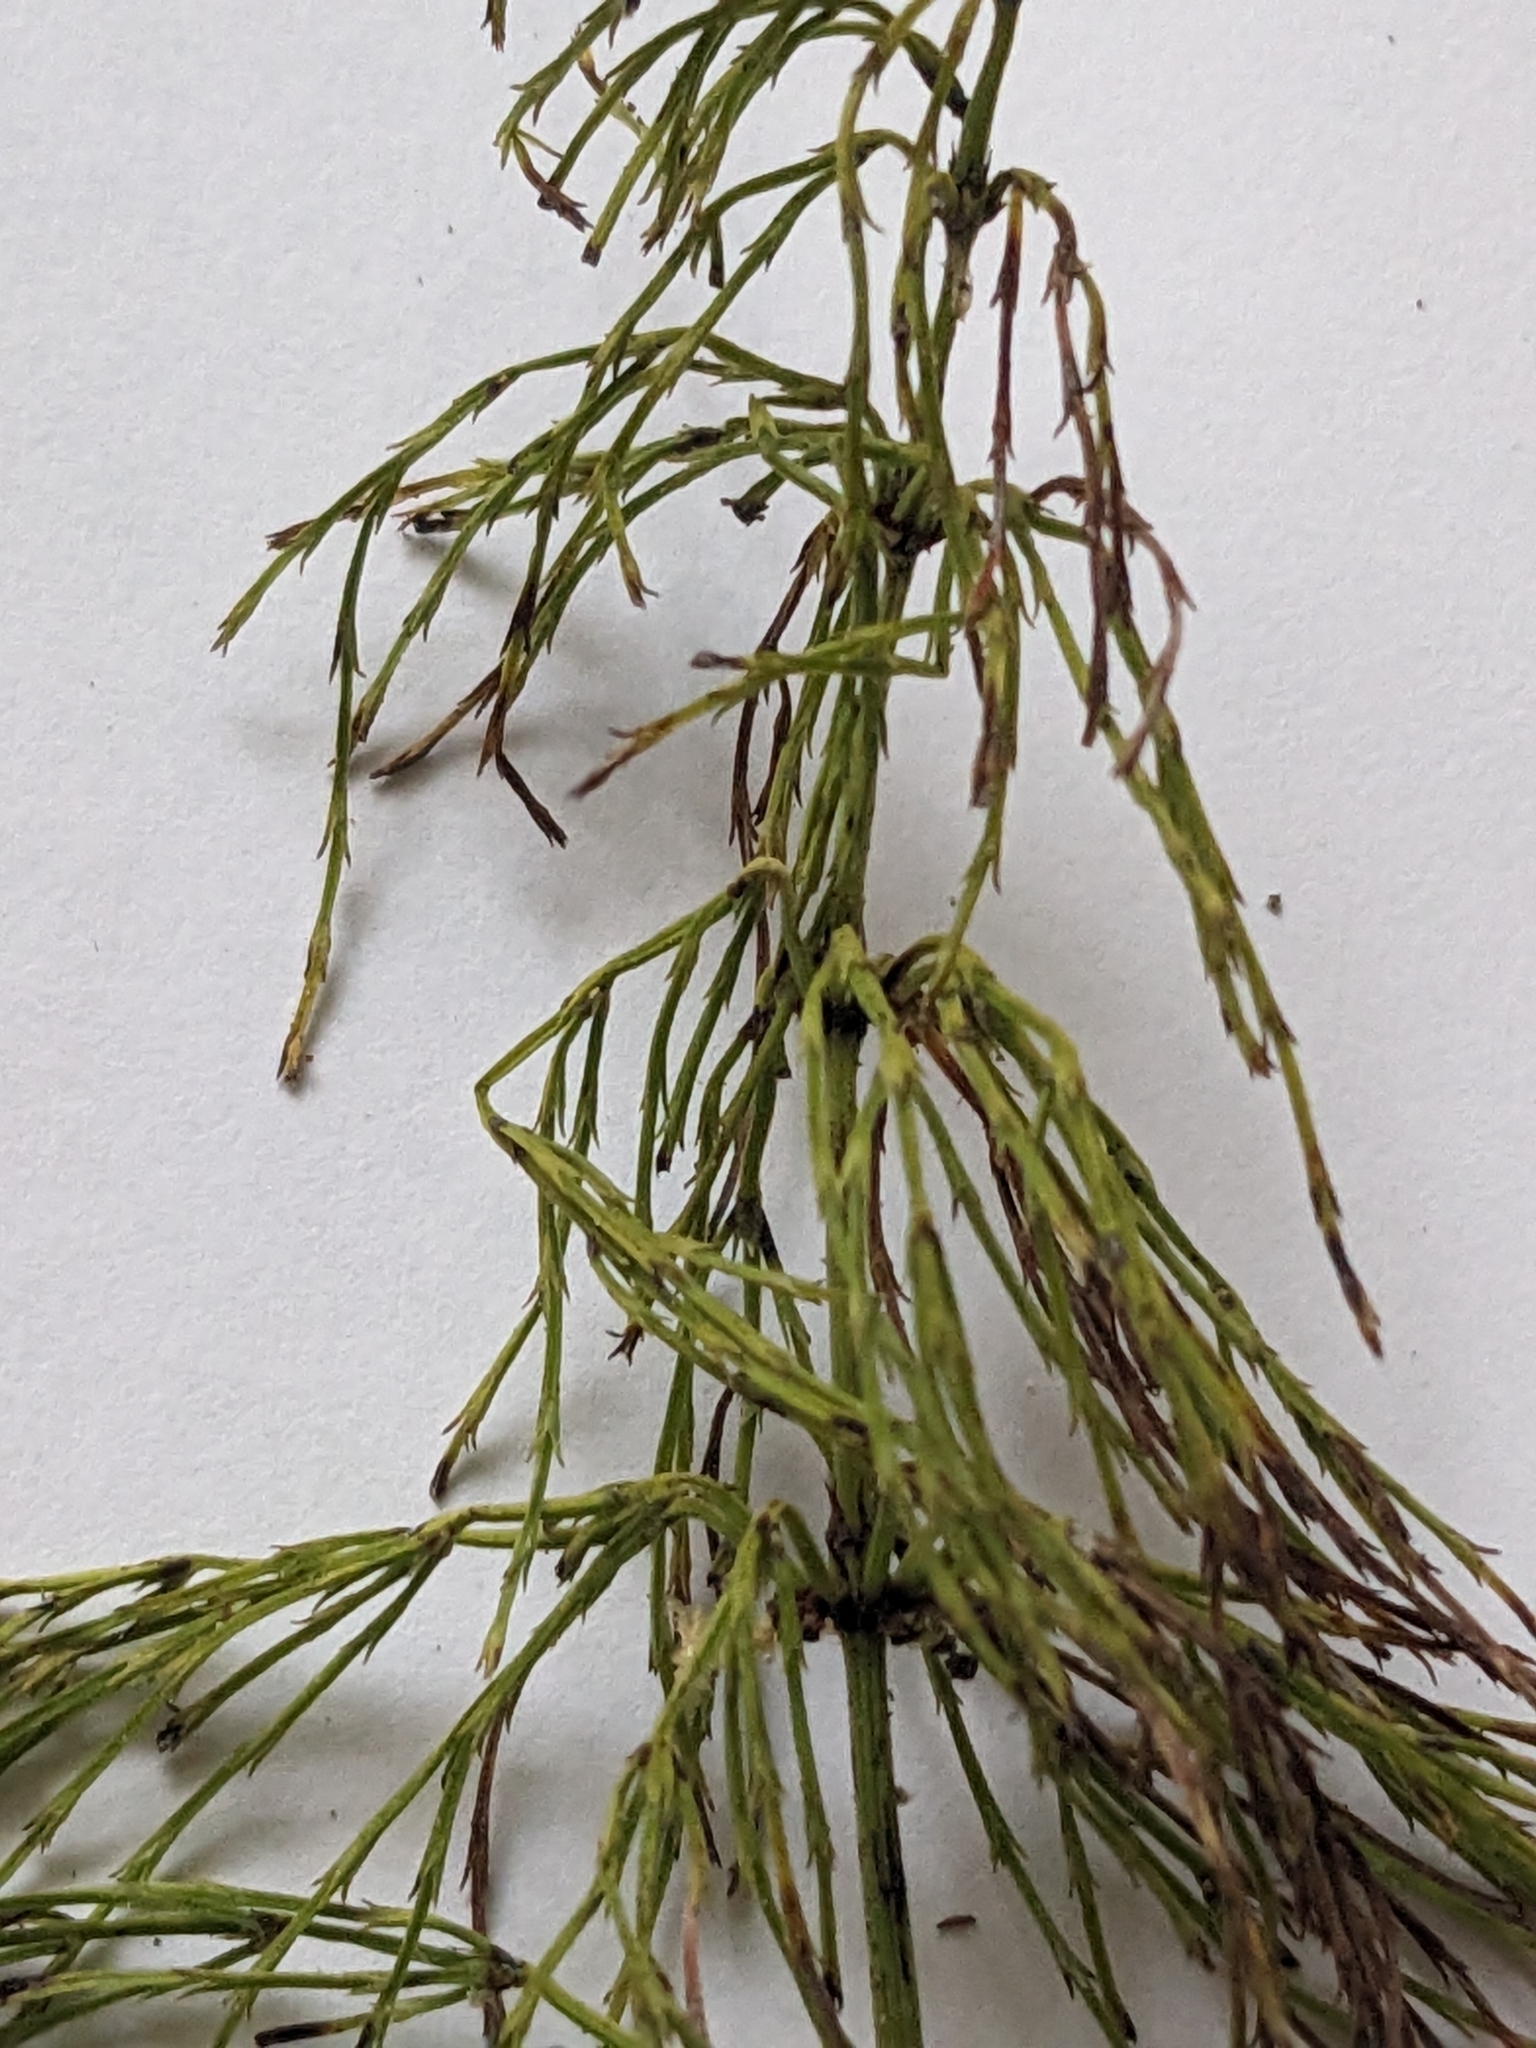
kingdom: Plantae
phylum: Tracheophyta
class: Polypodiopsida
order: Equisetales
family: Equisetaceae
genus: Equisetum
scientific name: Equisetum sylvaticum
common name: Wood horsetail
